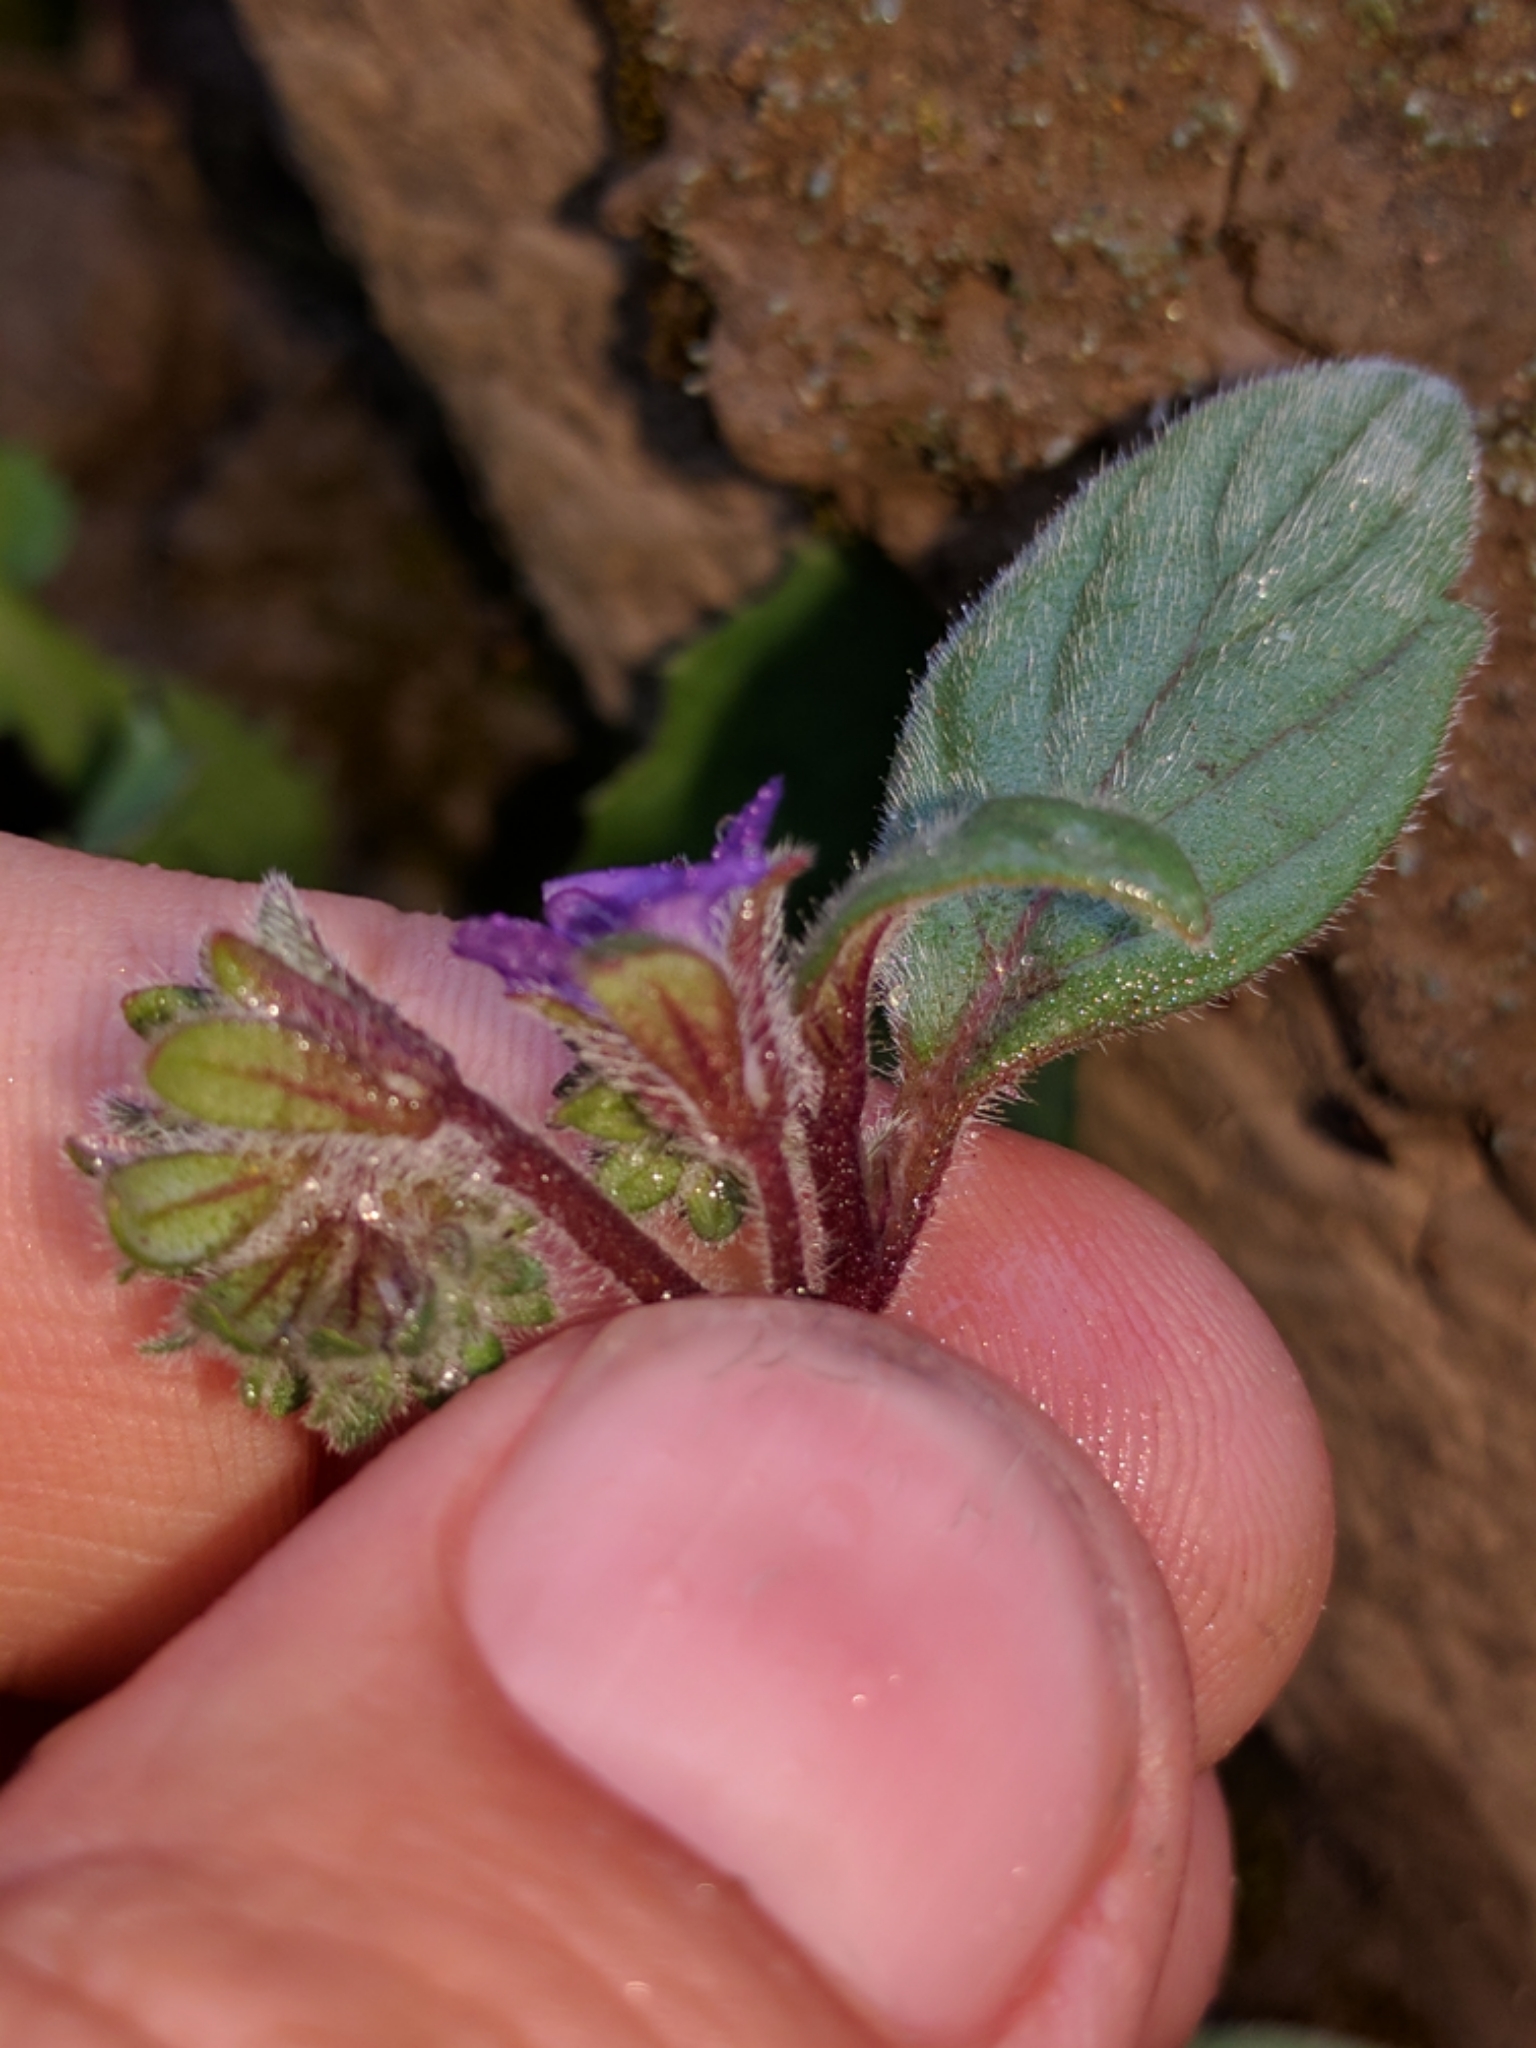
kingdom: Plantae
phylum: Tracheophyta
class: Magnoliopsida
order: Boraginales
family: Hydrophyllaceae
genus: Phacelia
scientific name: Phacelia vallicola
